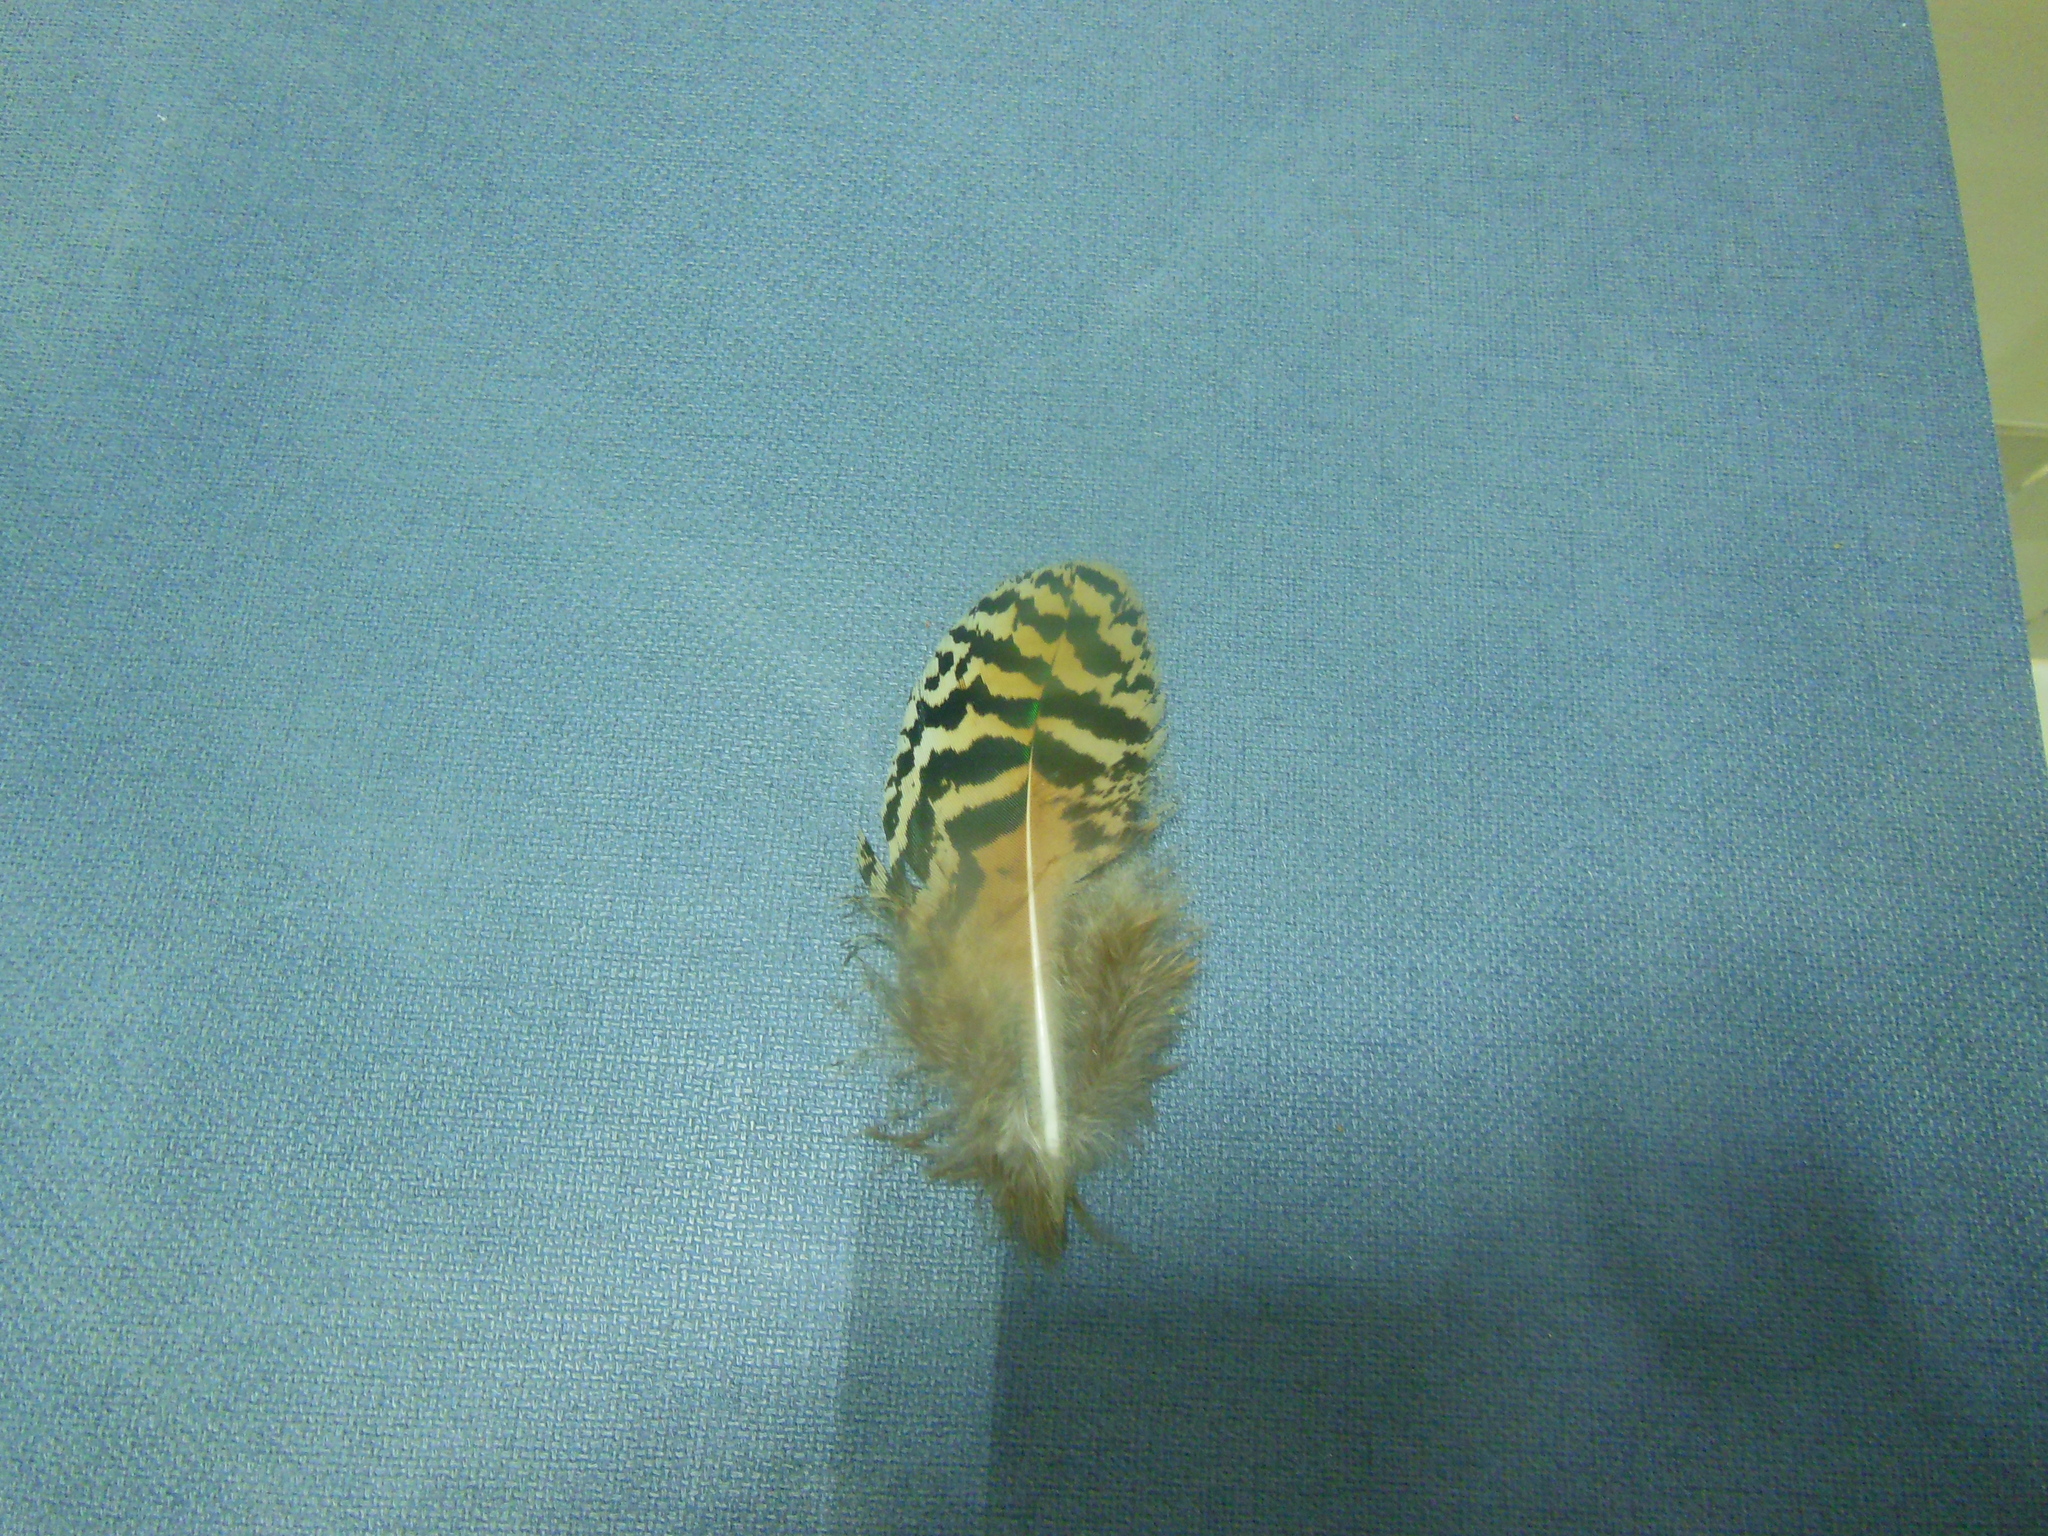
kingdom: Animalia
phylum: Chordata
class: Aves
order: Galliformes
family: Phasianidae
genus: Pavo
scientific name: Pavo cristatus
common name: Indian peafowl
